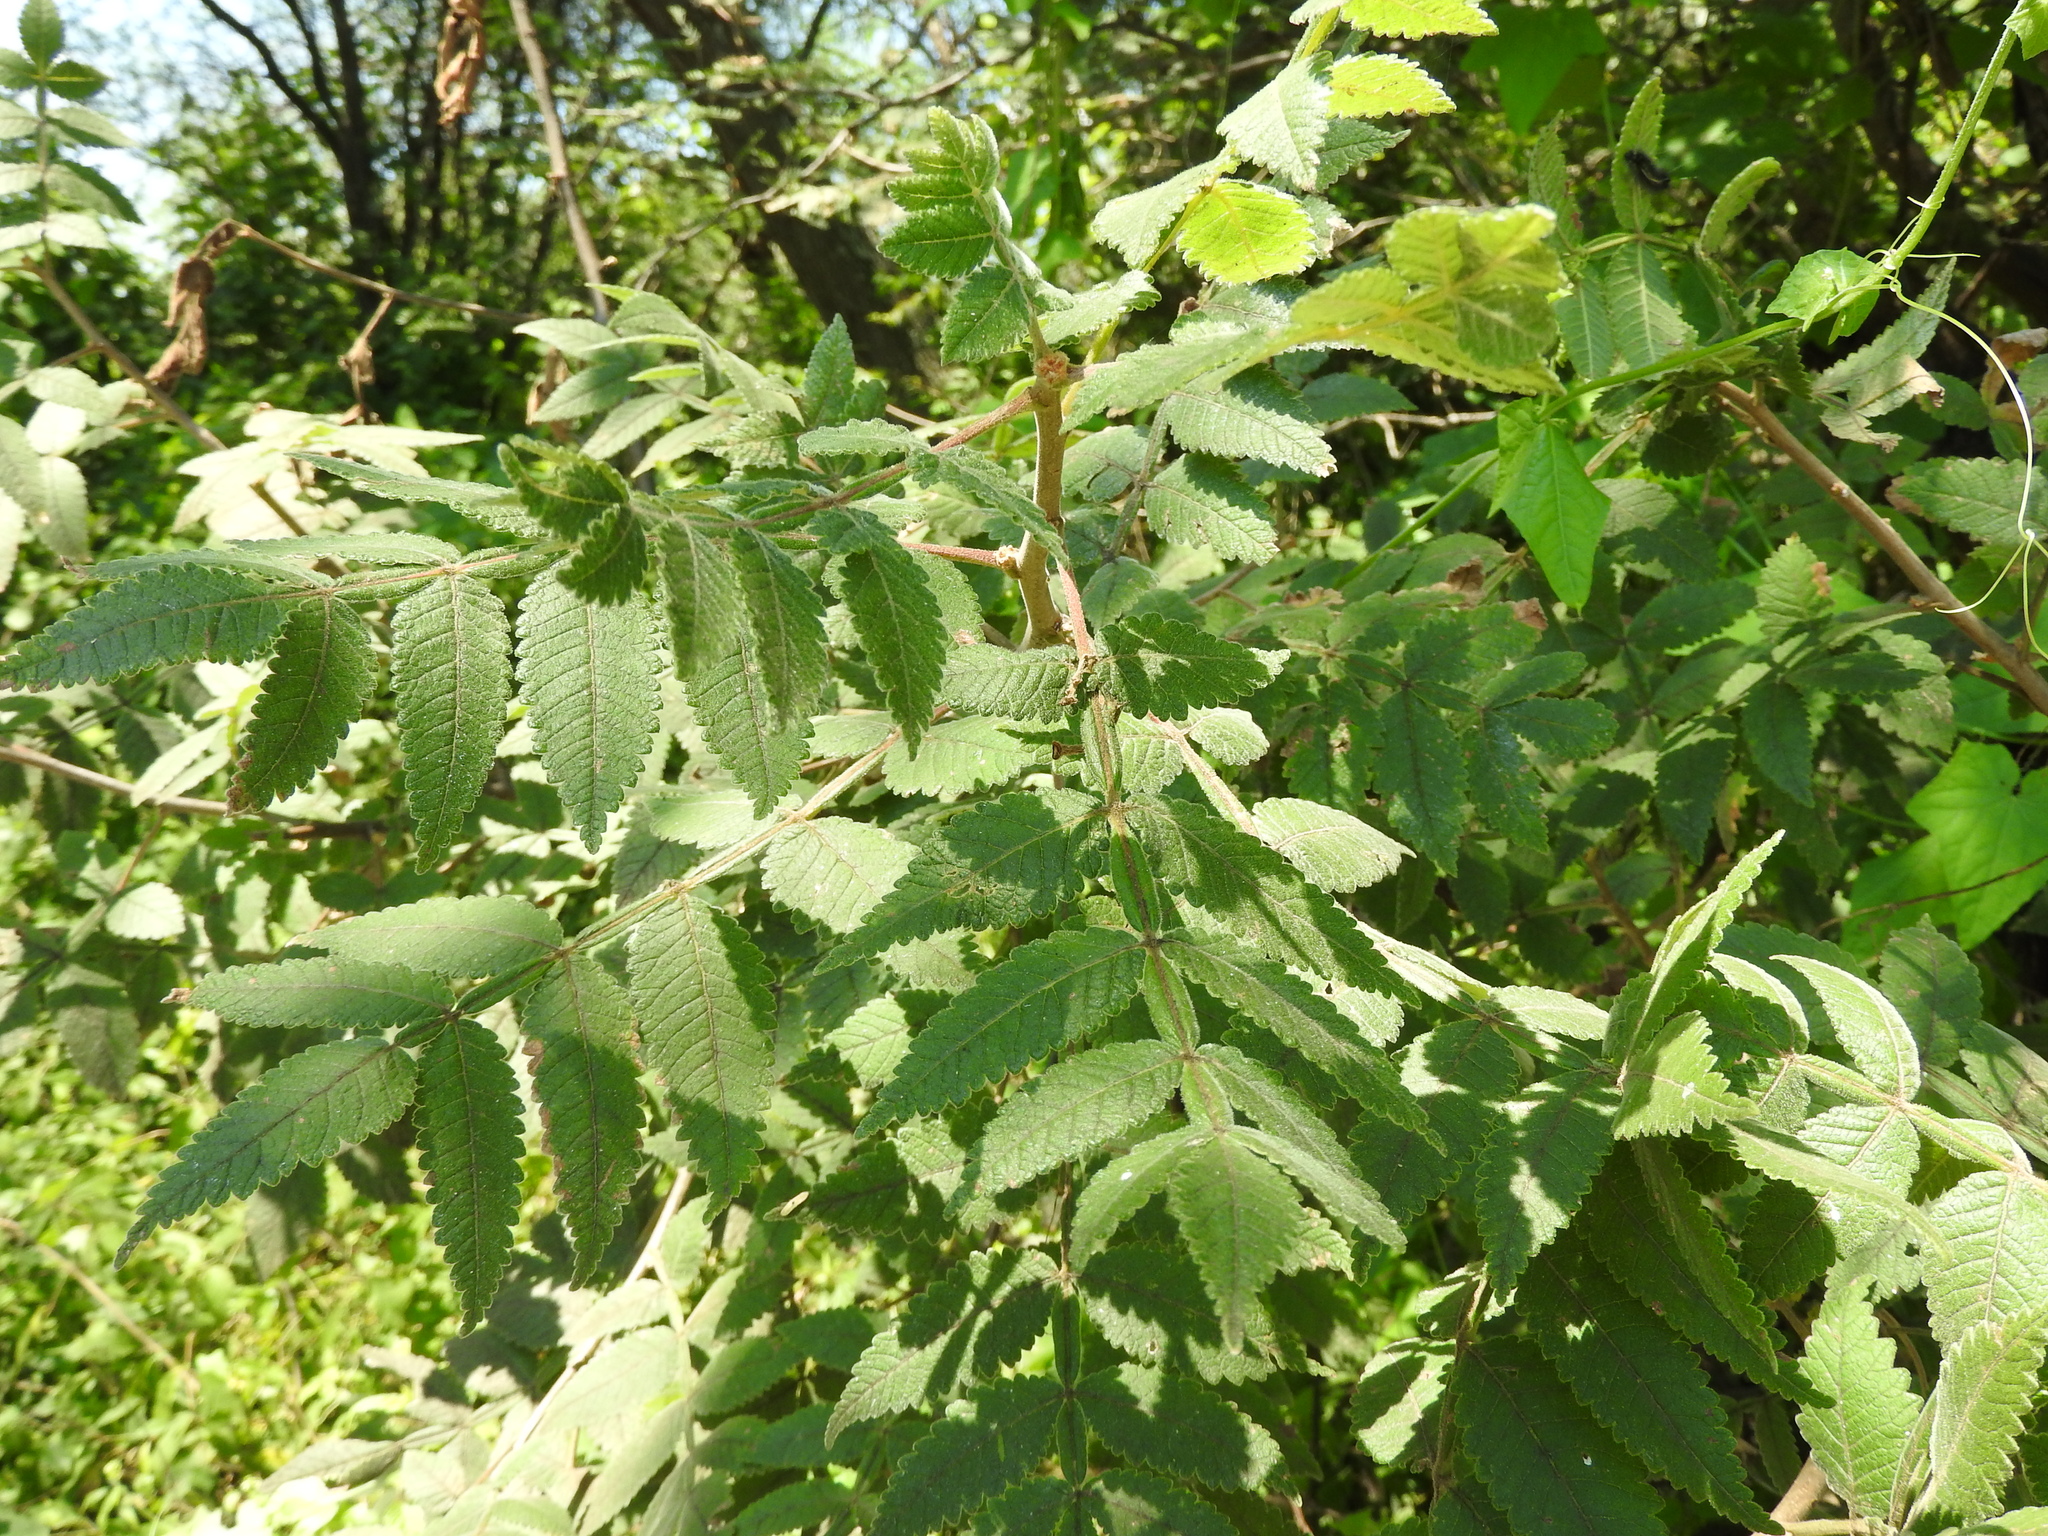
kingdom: Plantae
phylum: Tracheophyta
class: Magnoliopsida
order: Sapindales
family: Burseraceae
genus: Bursera
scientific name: Bursera palmeri
